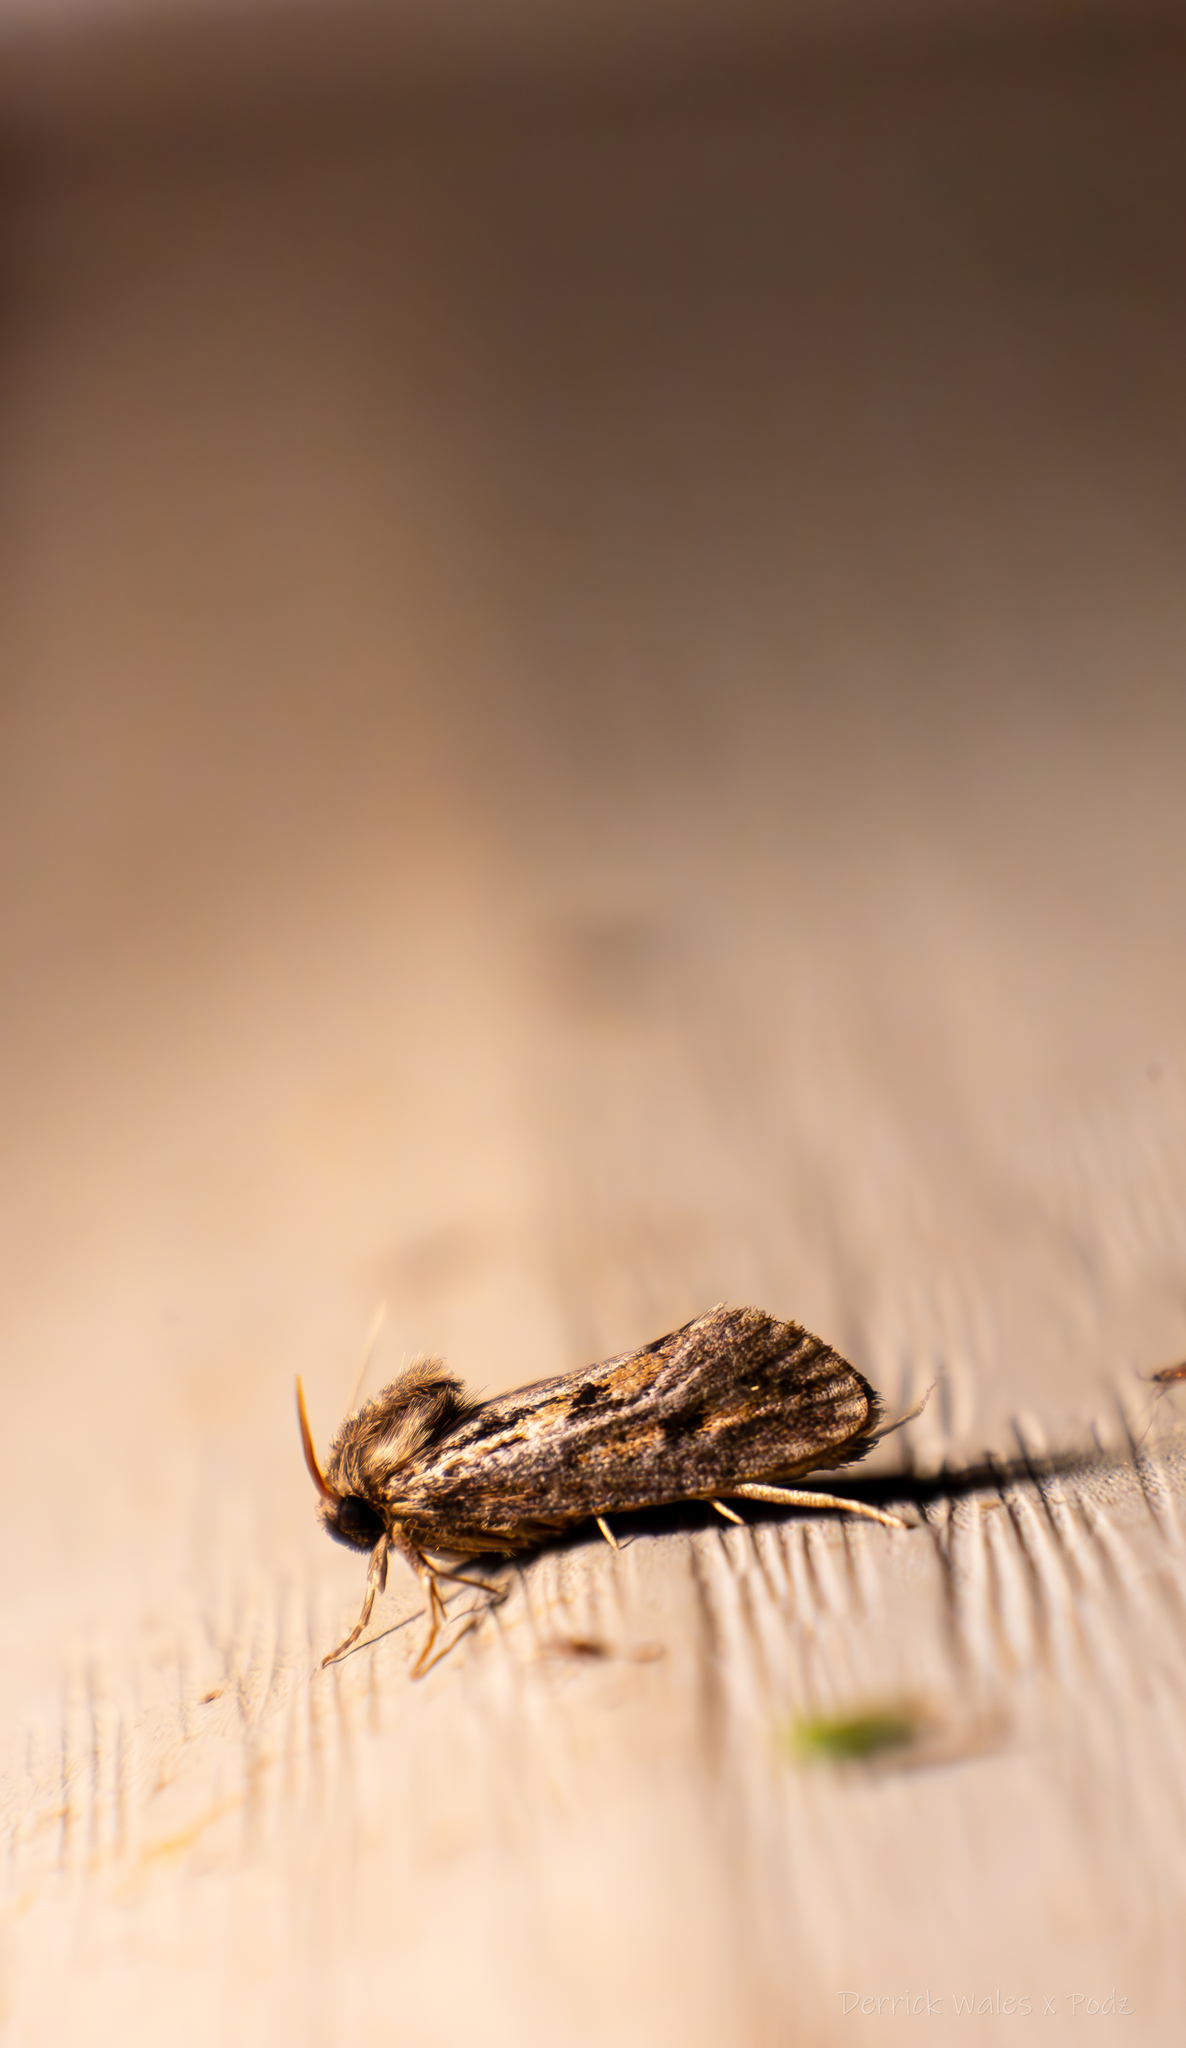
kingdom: Animalia
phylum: Arthropoda
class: Insecta
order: Lepidoptera
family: Tineidae
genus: Acrolophus
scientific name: Acrolophus popeanella
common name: Clemens' grass tubeworm moth
